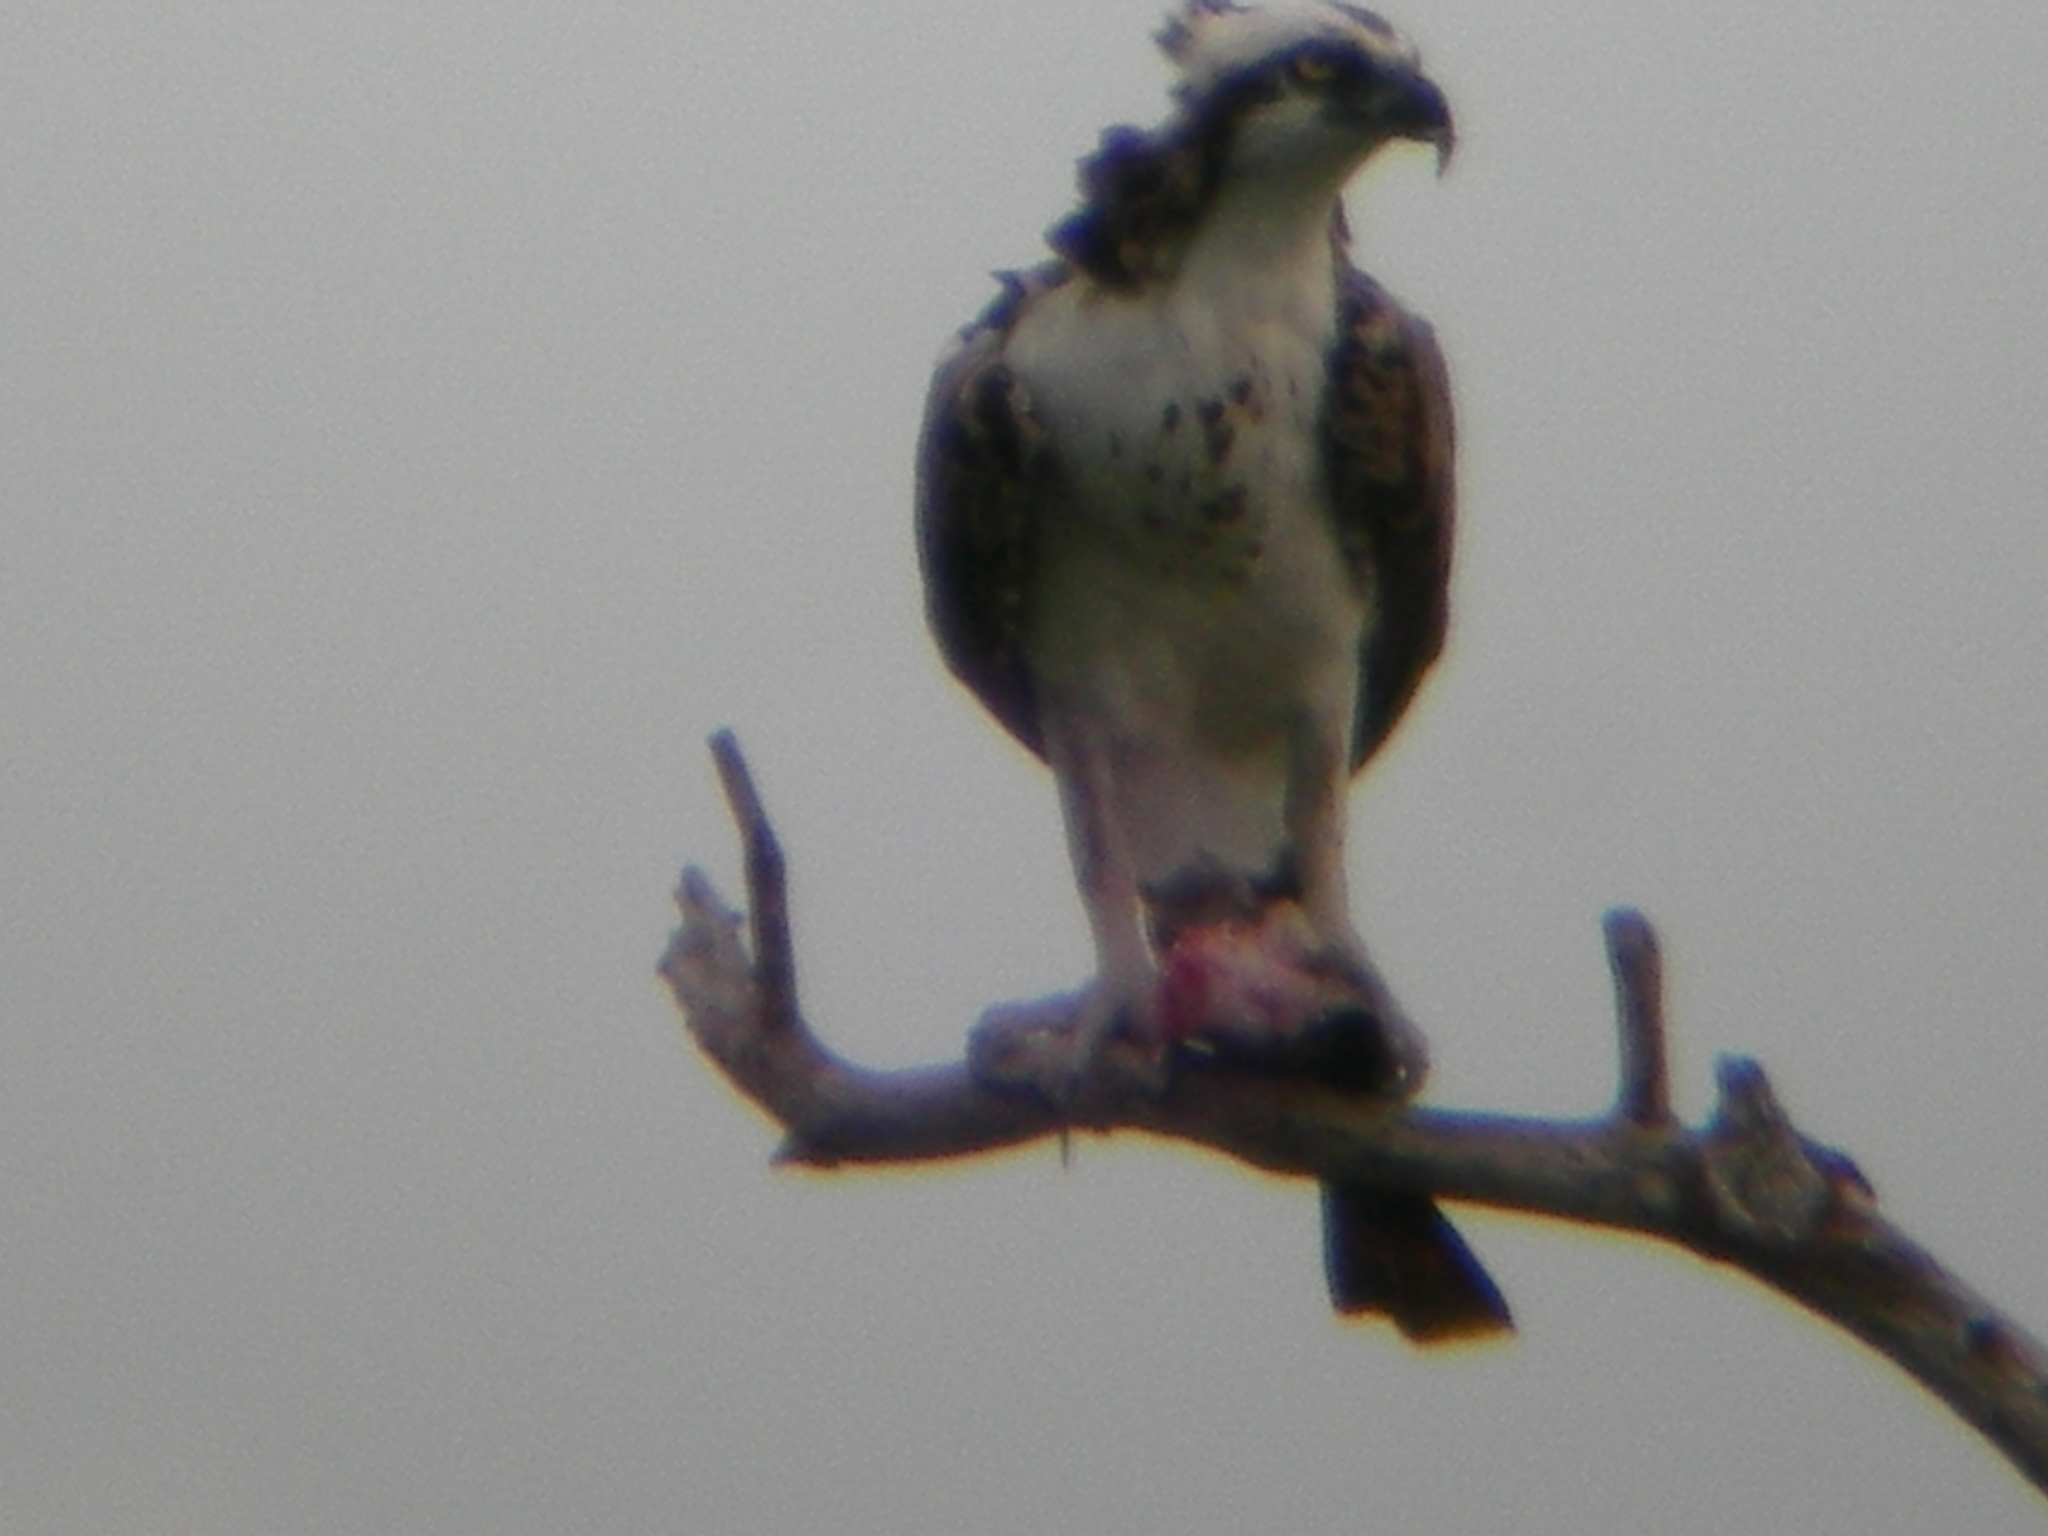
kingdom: Animalia
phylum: Chordata
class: Aves
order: Accipitriformes
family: Pandionidae
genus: Pandion
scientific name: Pandion haliaetus
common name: Osprey
